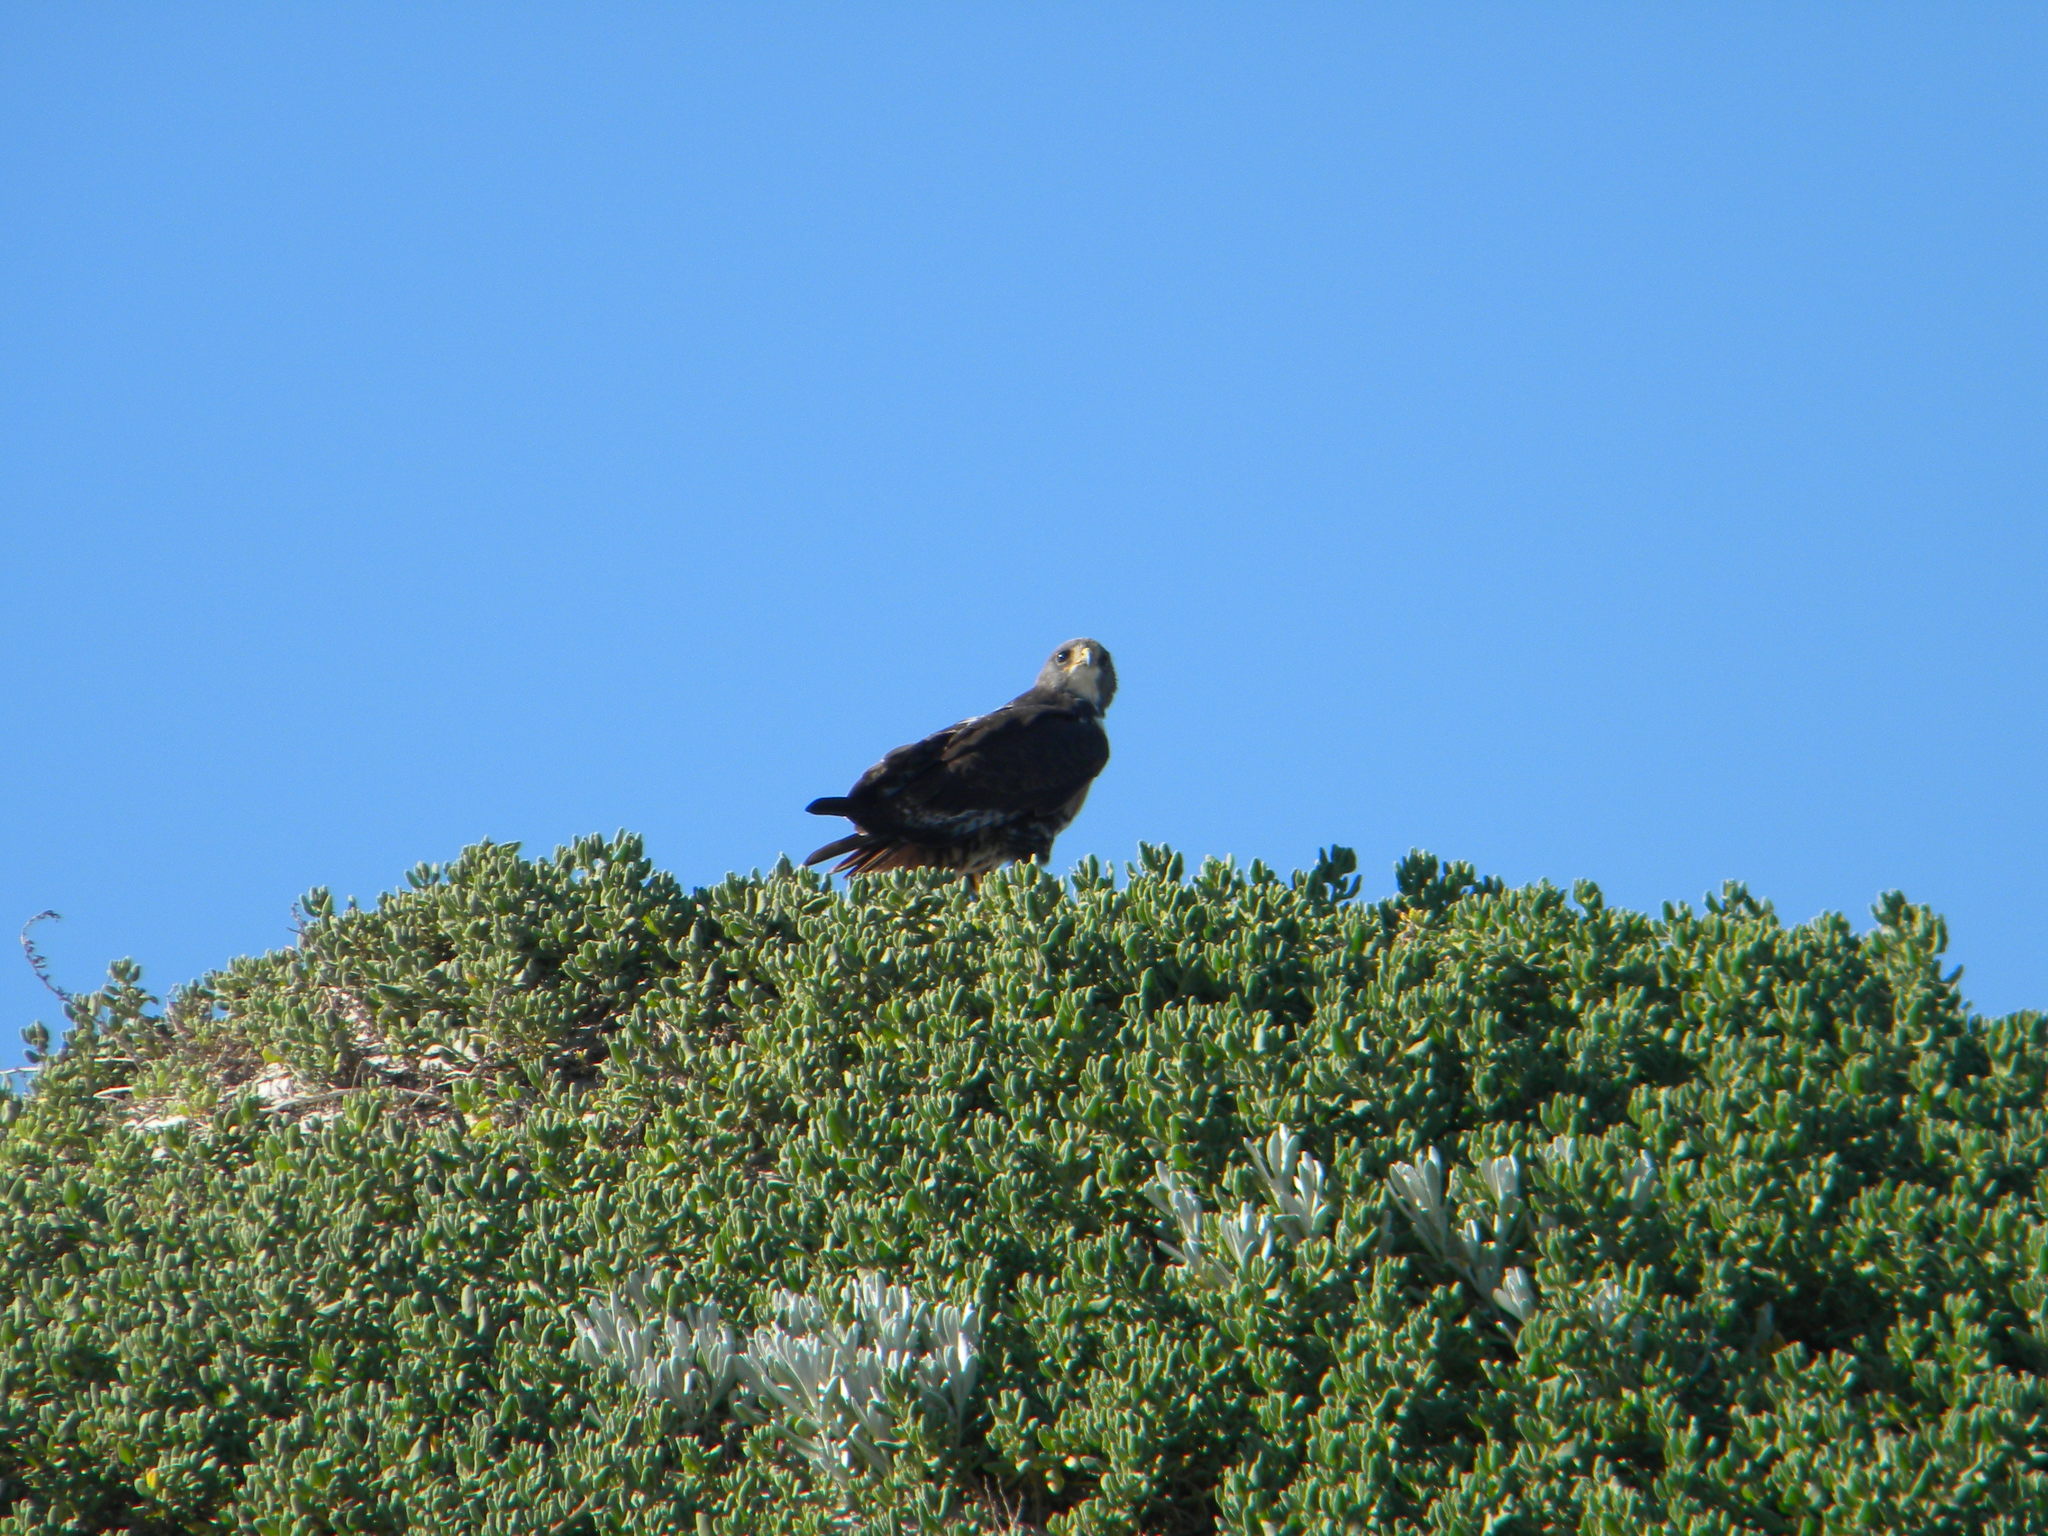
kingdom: Animalia
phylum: Chordata
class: Aves
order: Accipitriformes
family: Accipitridae
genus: Buteo
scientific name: Buteo rufofuscus
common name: Jackal buzzard
